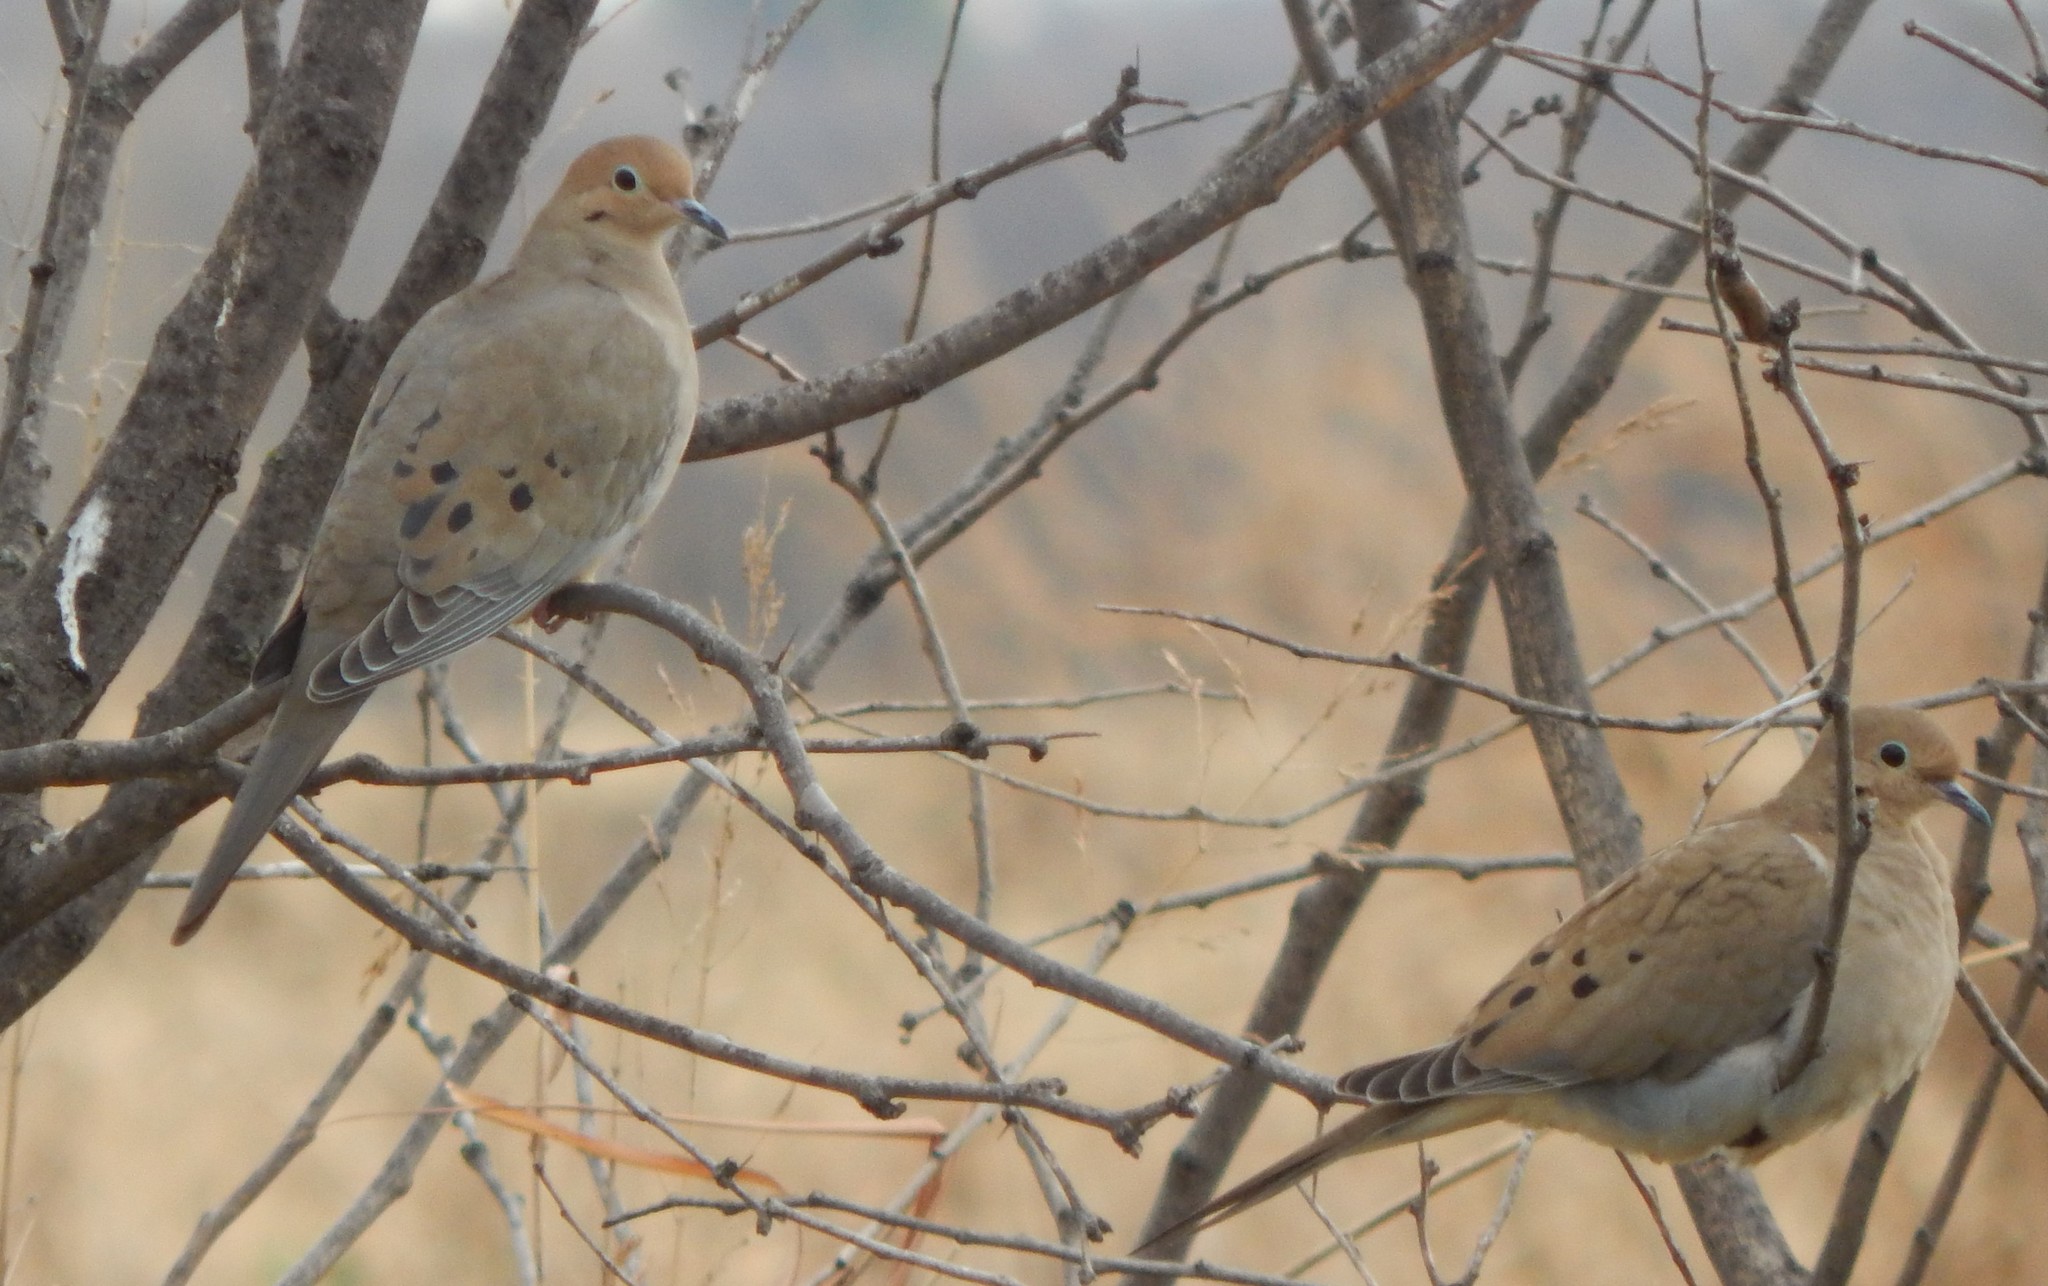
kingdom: Animalia
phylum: Chordata
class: Aves
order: Columbiformes
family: Columbidae
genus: Zenaida
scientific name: Zenaida macroura
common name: Mourning dove
